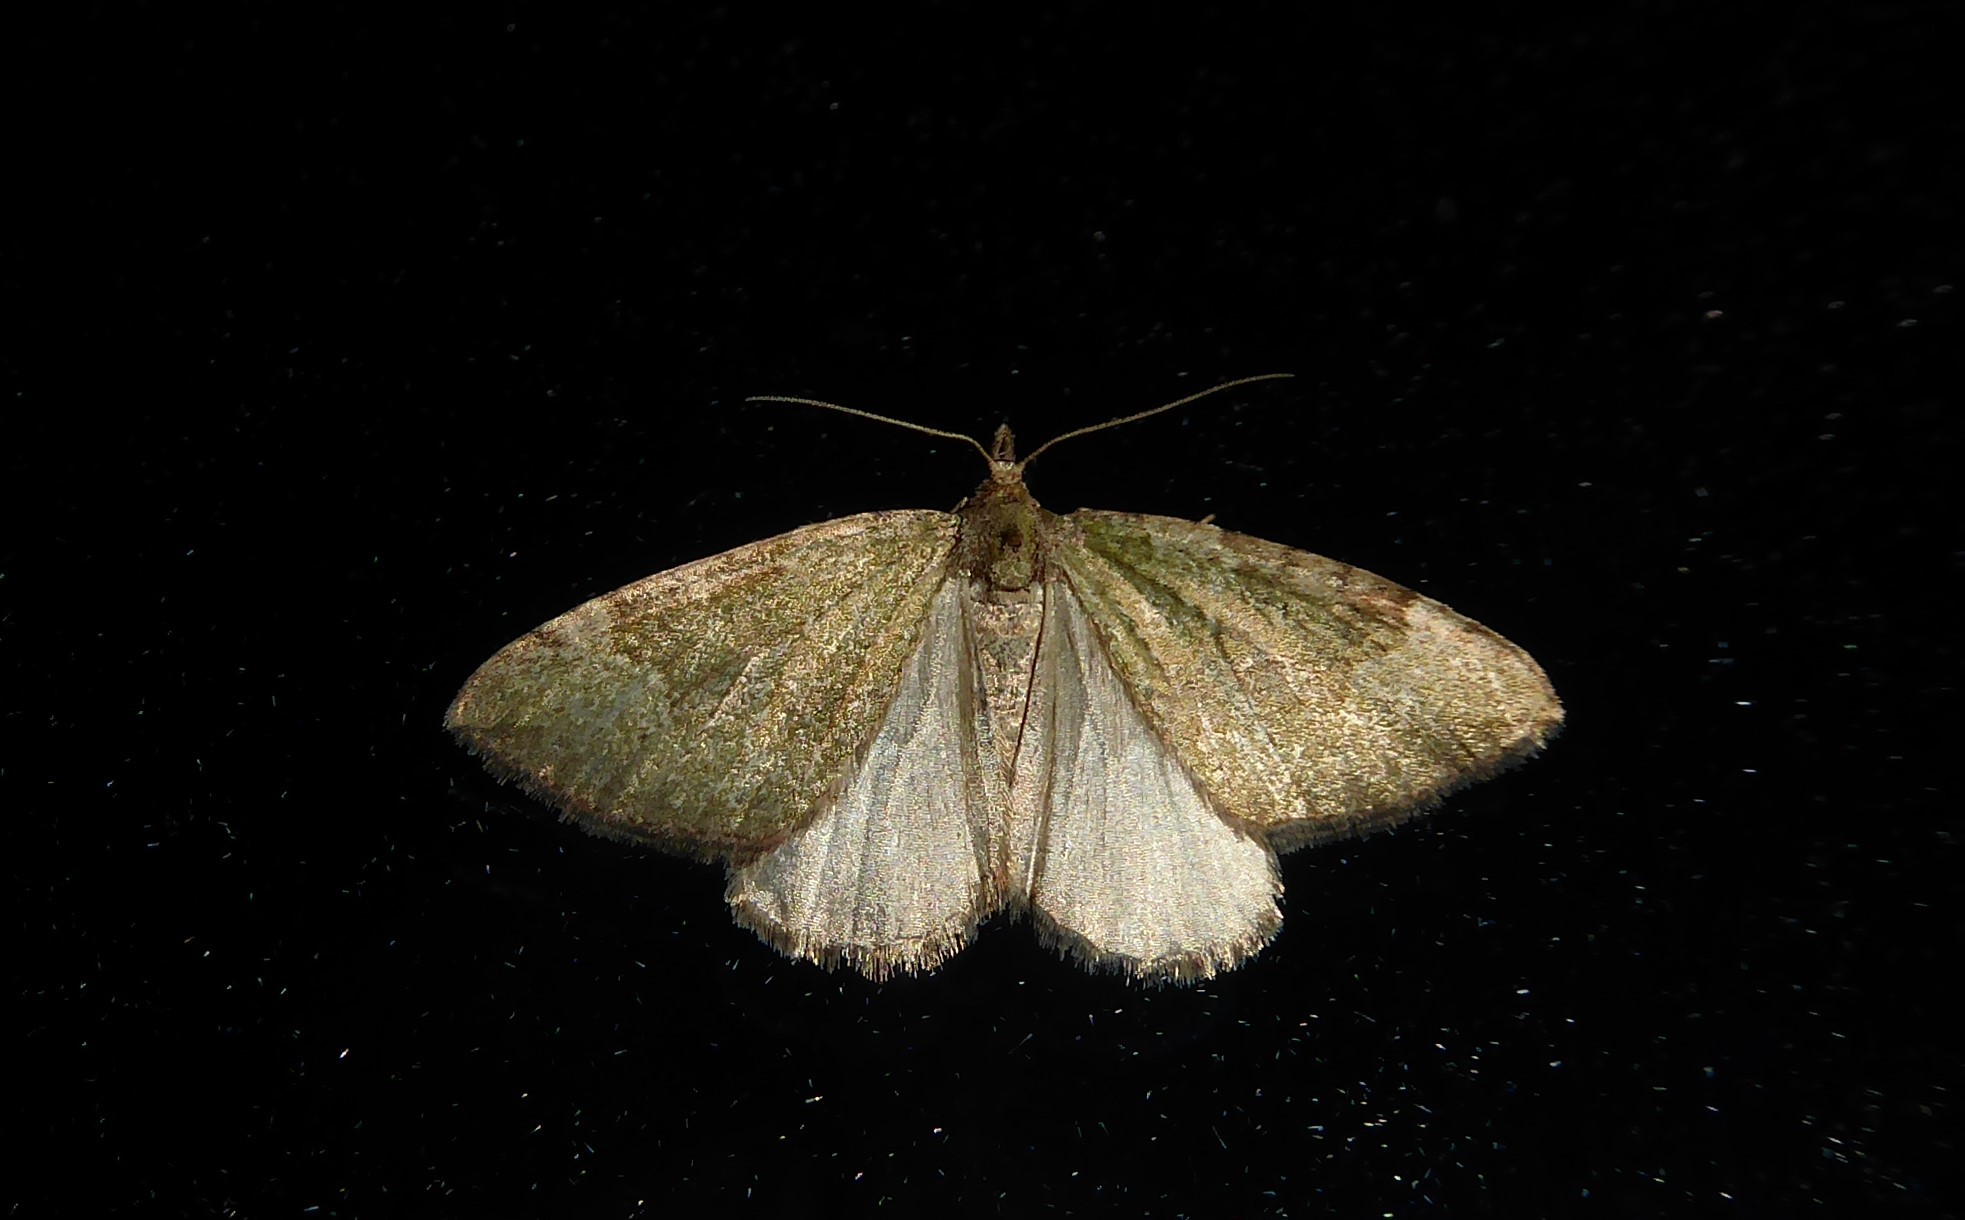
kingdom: Animalia
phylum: Arthropoda
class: Insecta
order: Lepidoptera
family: Geometridae
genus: Epyaxa
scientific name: Epyaxa rosearia
